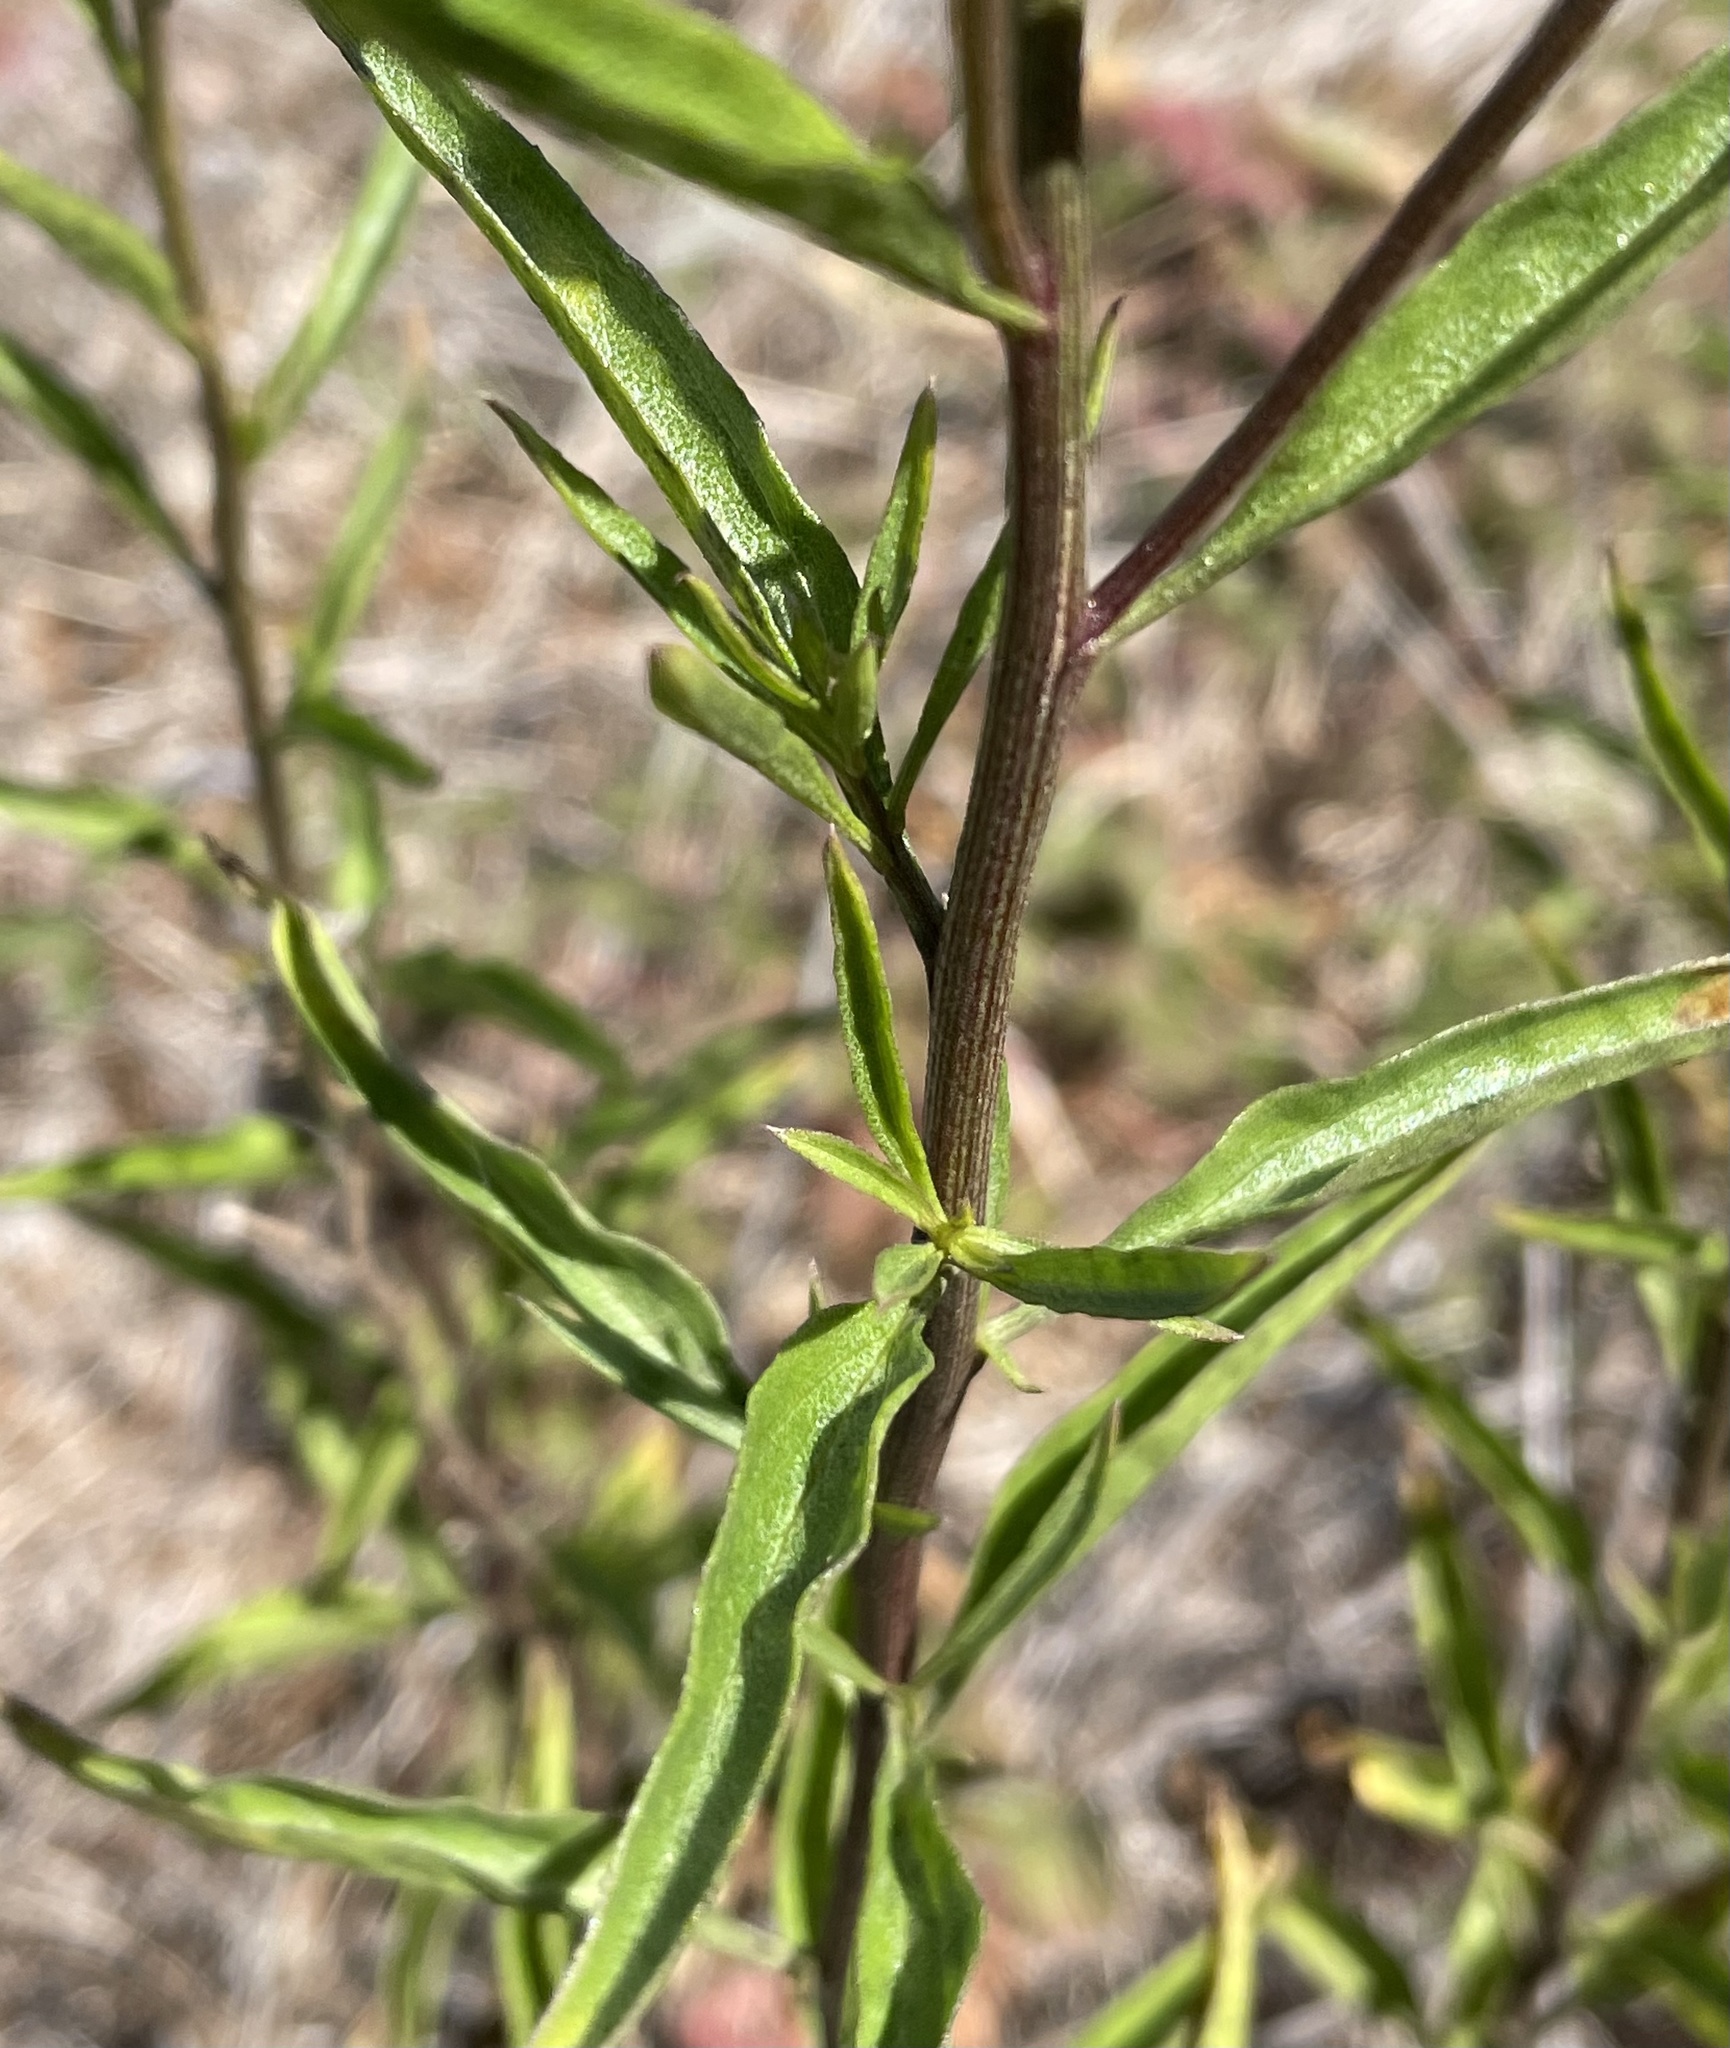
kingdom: Plantae
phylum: Tracheophyta
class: Magnoliopsida
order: Asterales
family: Asteraceae
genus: Baccharis
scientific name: Baccharis glutinosa
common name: Saltmarsh baccharis
